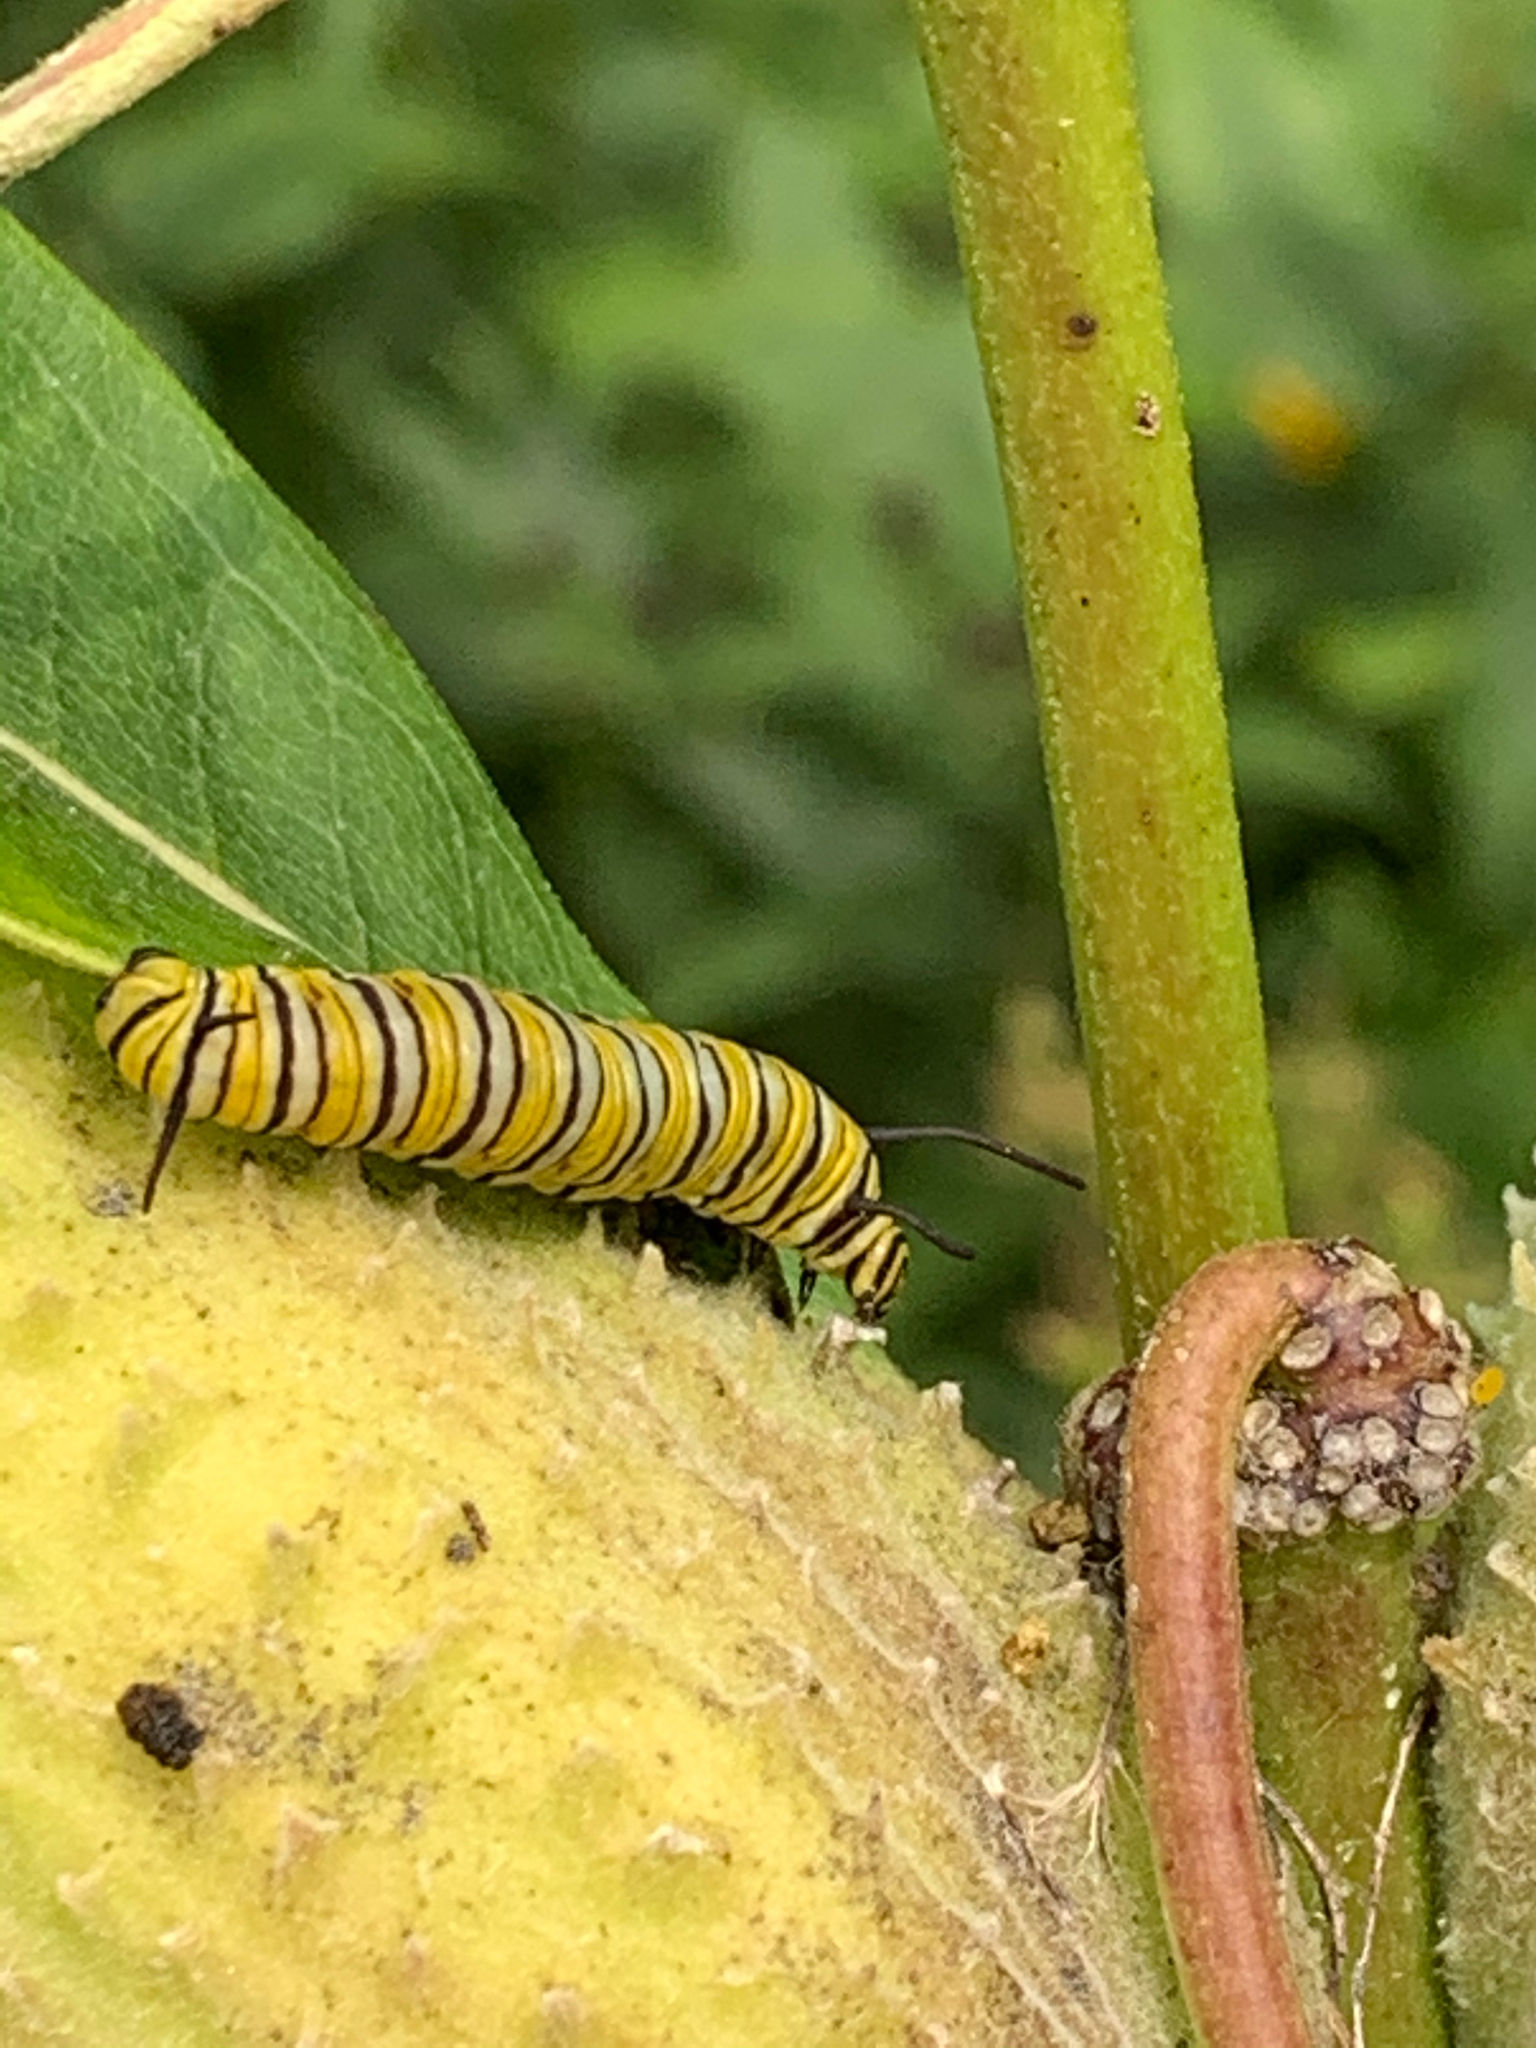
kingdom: Animalia
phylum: Arthropoda
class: Insecta
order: Lepidoptera
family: Nymphalidae
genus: Danaus
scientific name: Danaus plexippus
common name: Monarch
